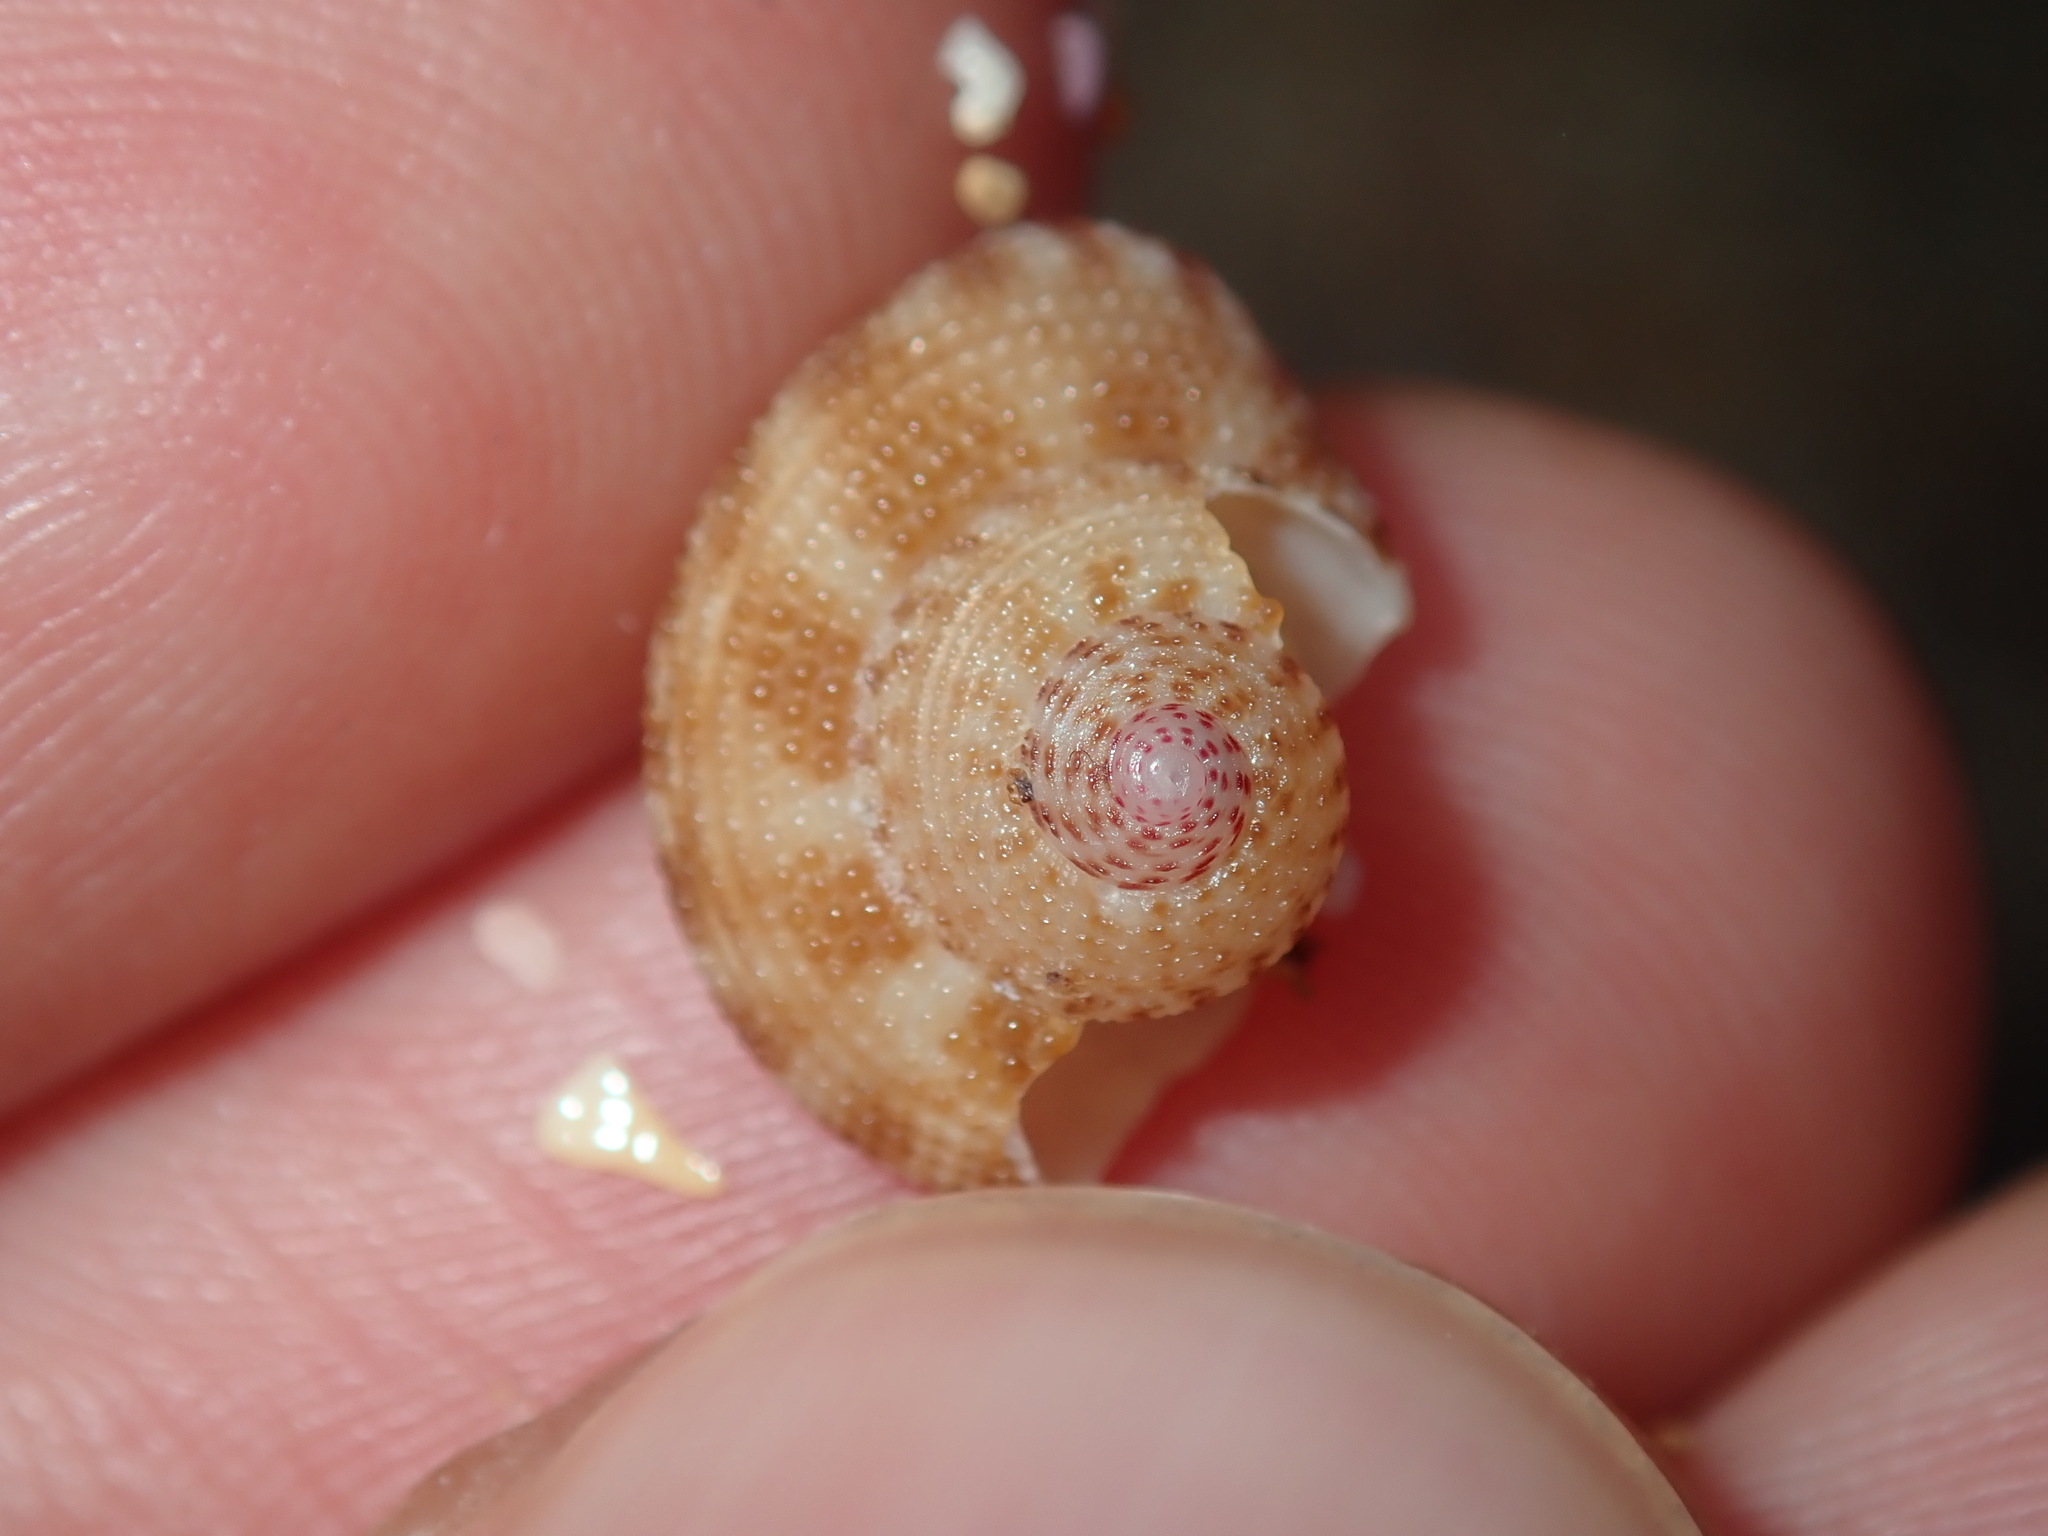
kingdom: Animalia
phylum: Mollusca
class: Gastropoda
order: Trochida
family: Trochidae
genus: Clanculus
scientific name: Clanculus floridus
